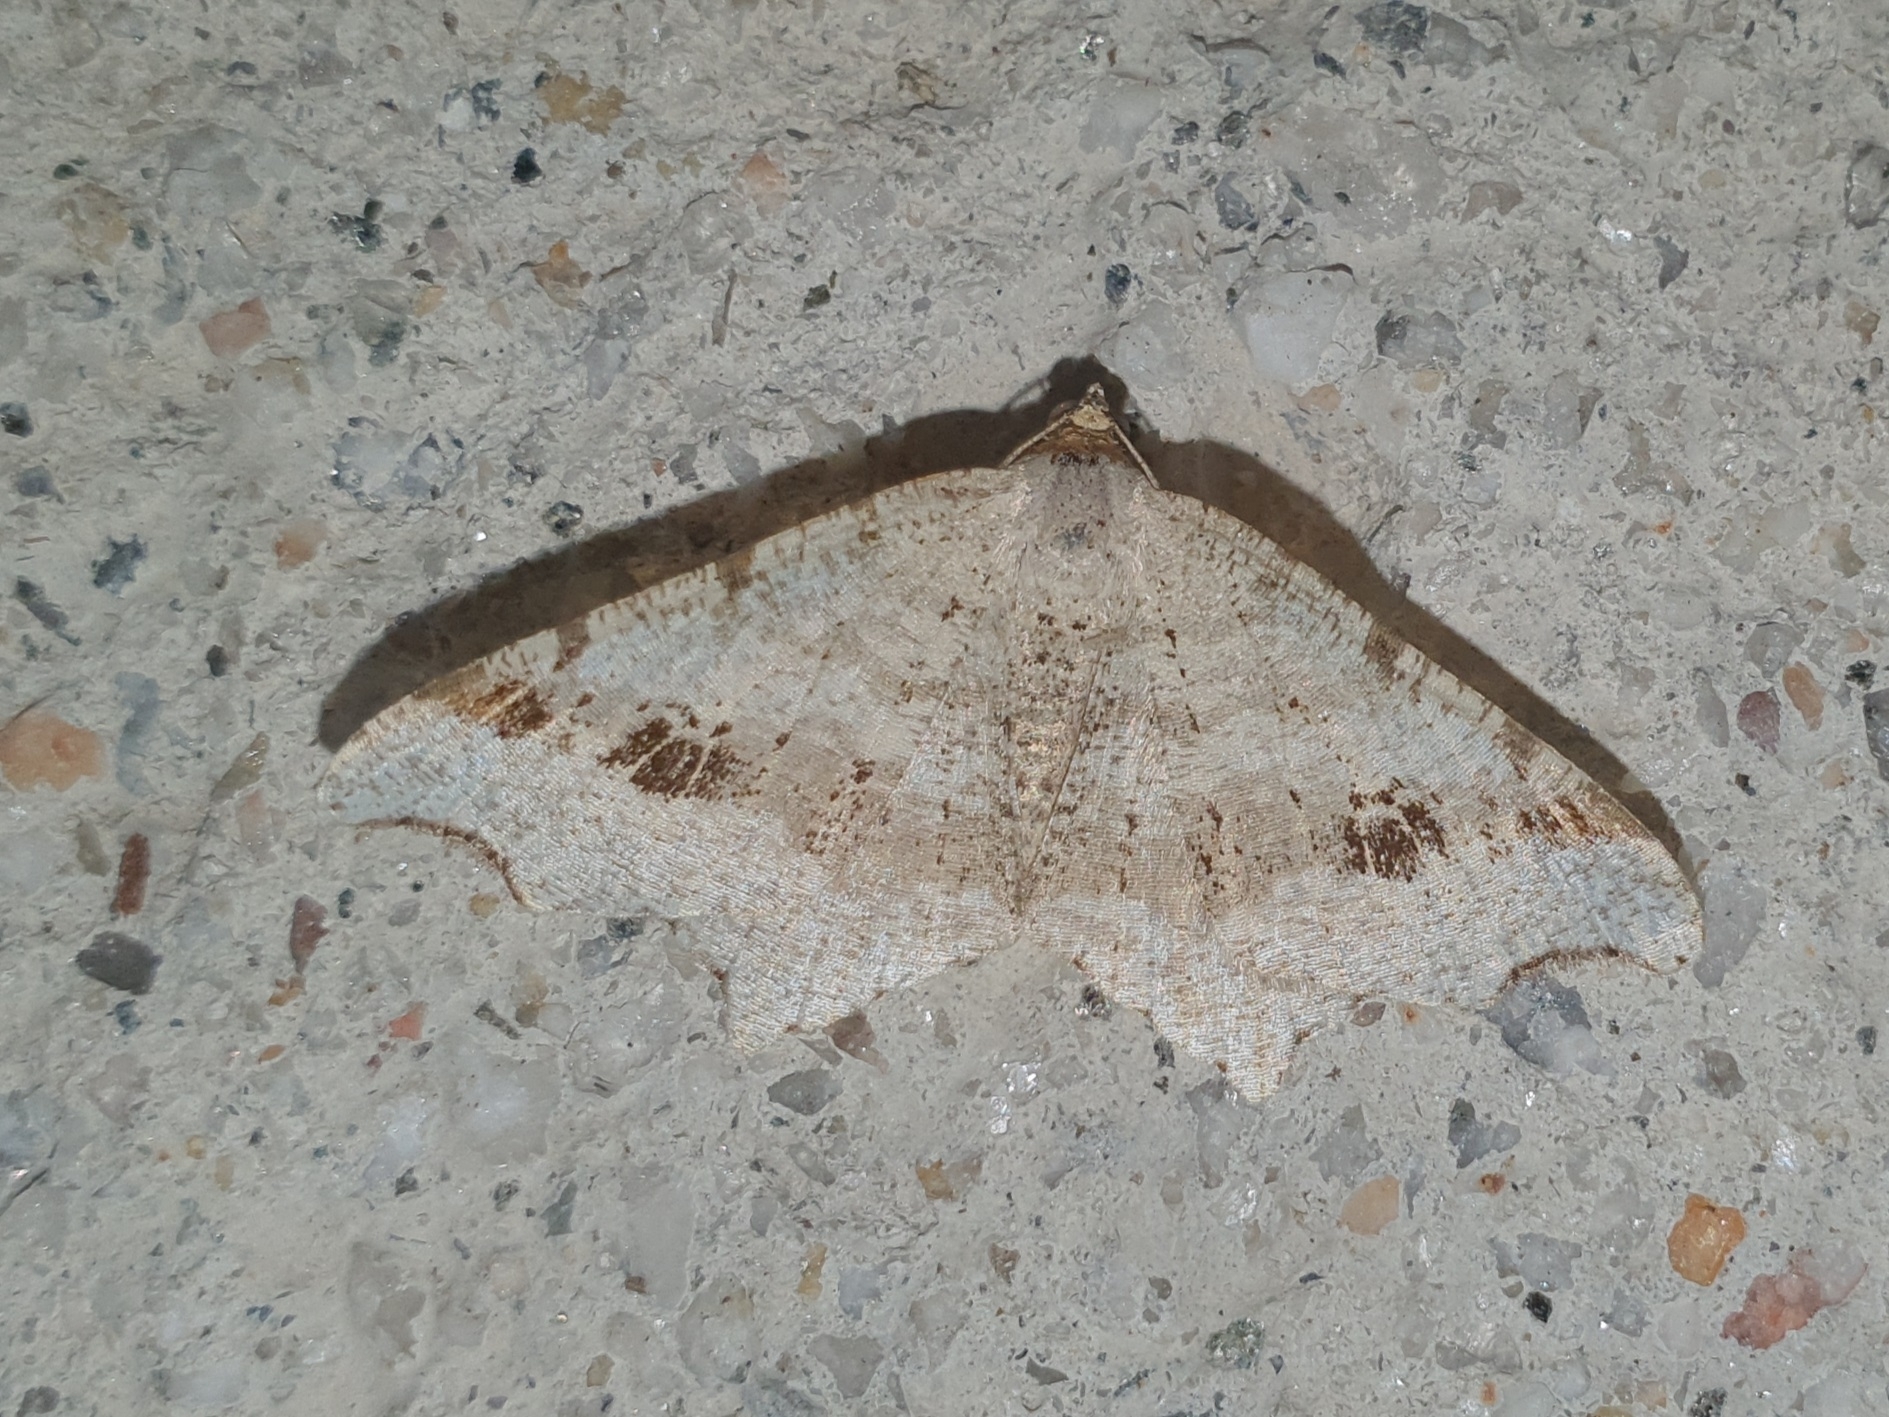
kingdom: Animalia
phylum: Arthropoda
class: Insecta
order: Lepidoptera
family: Geometridae
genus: Macaria
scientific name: Macaria alternata
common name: Sharp-angled peacock
